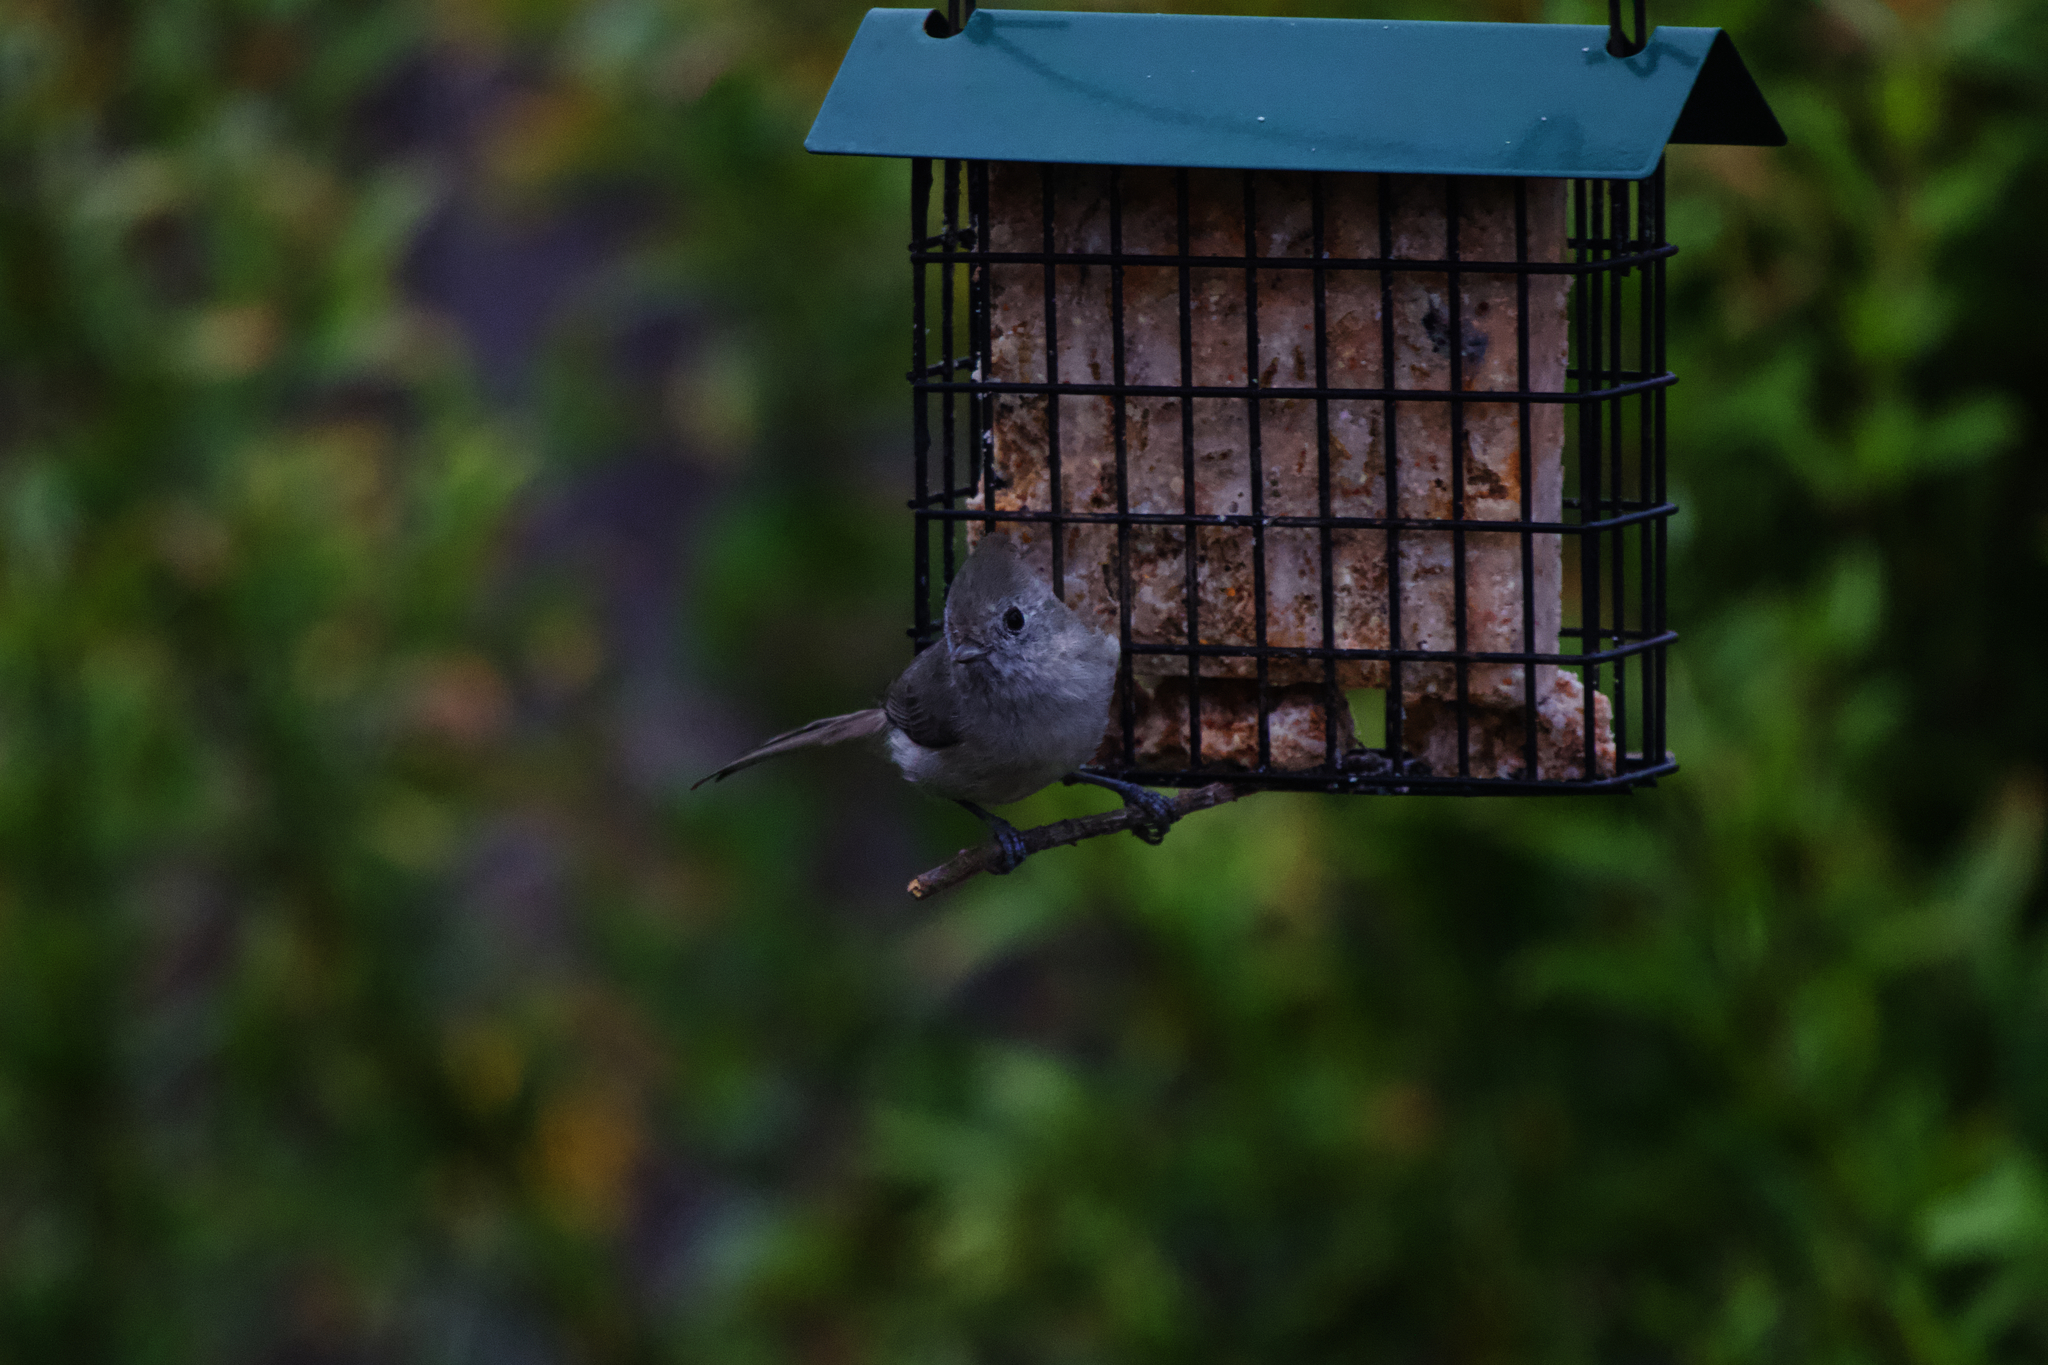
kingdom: Animalia
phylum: Chordata
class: Aves
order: Passeriformes
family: Paridae
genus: Baeolophus
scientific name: Baeolophus inornatus
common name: Oak titmouse
